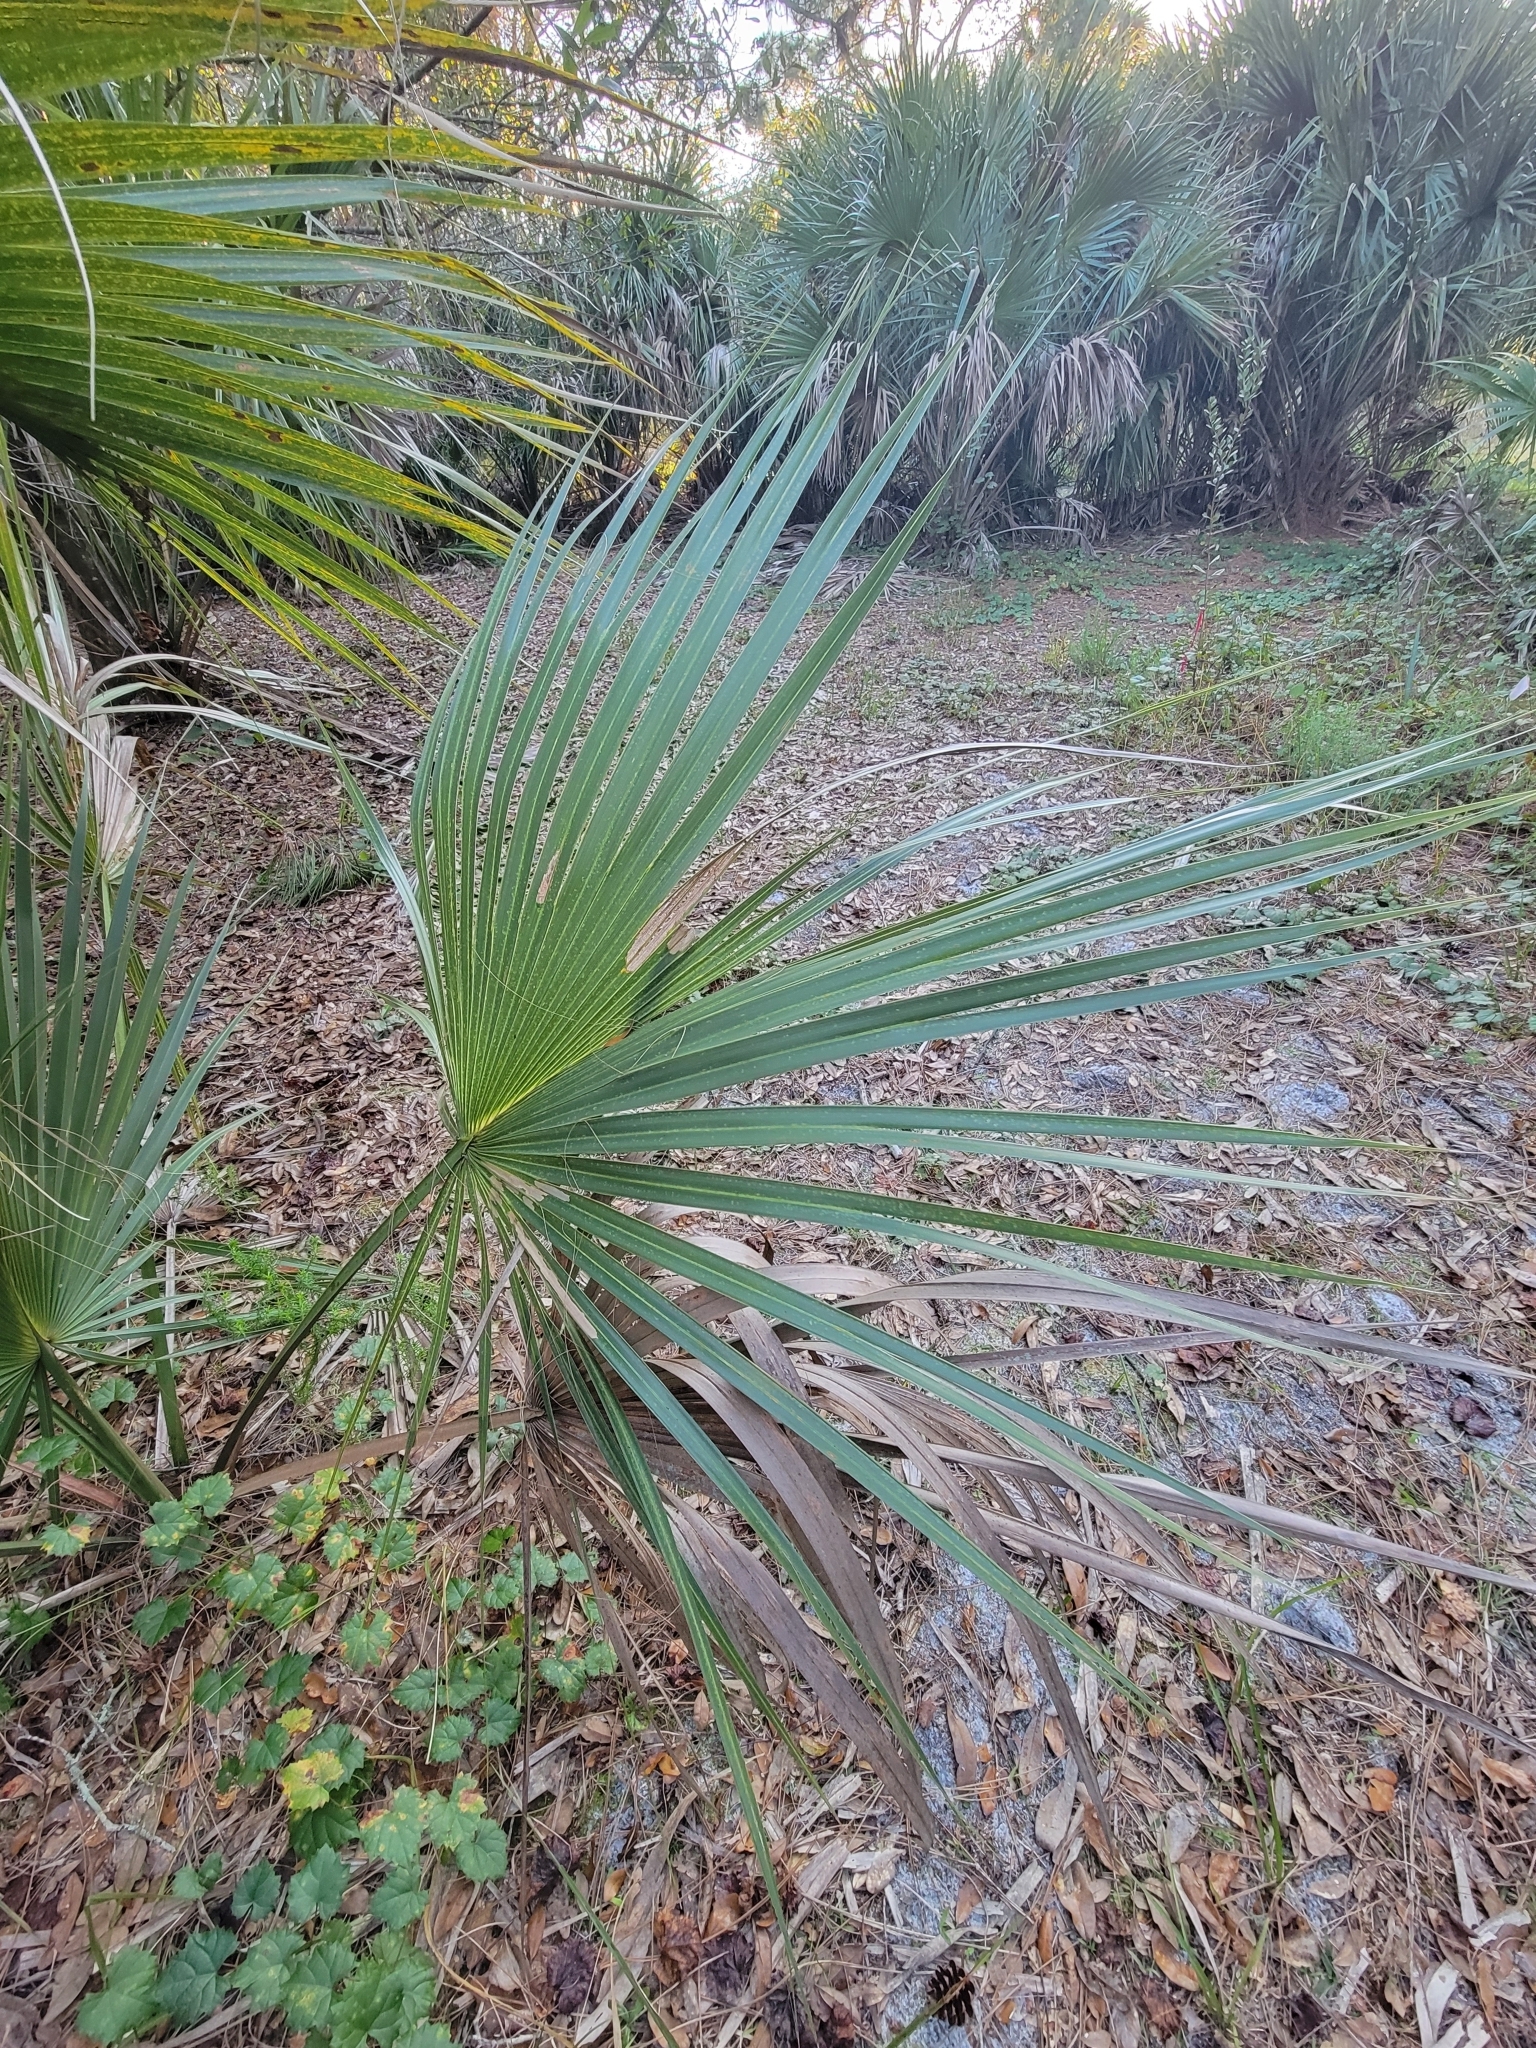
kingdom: Plantae
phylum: Tracheophyta
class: Liliopsida
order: Arecales
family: Arecaceae
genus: Sabal
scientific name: Sabal palmetto
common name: Blue palmetto
